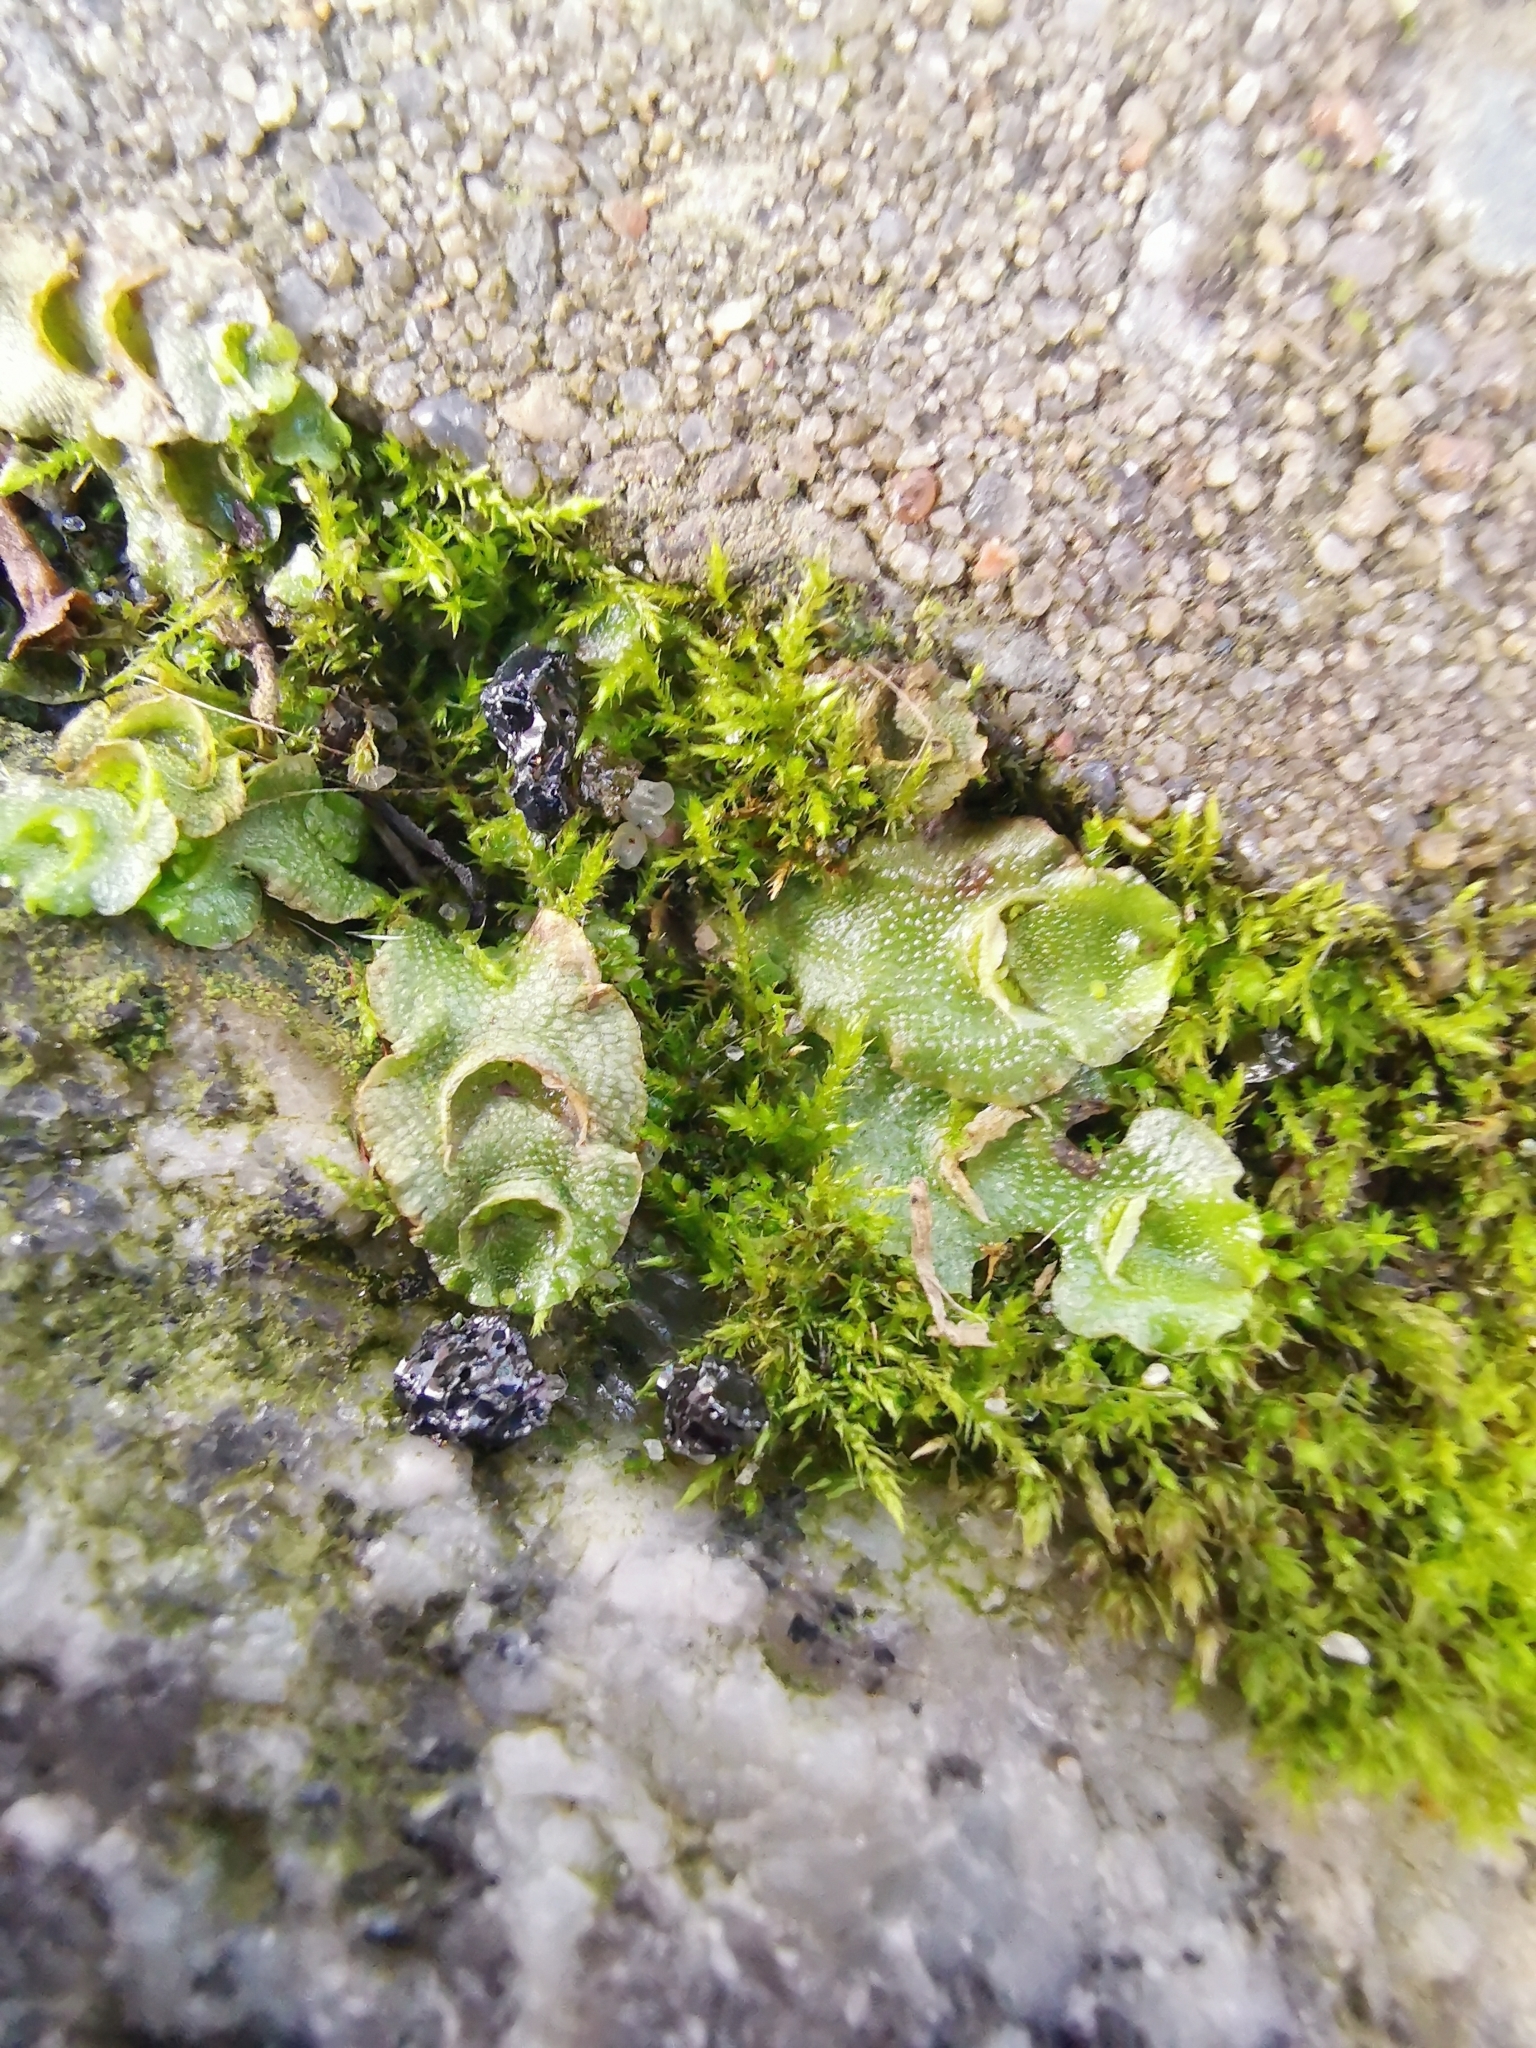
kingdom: Plantae
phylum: Marchantiophyta
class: Marchantiopsida
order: Lunulariales
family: Lunulariaceae
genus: Lunularia
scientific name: Lunularia cruciata
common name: Crescent-cup liverwort
